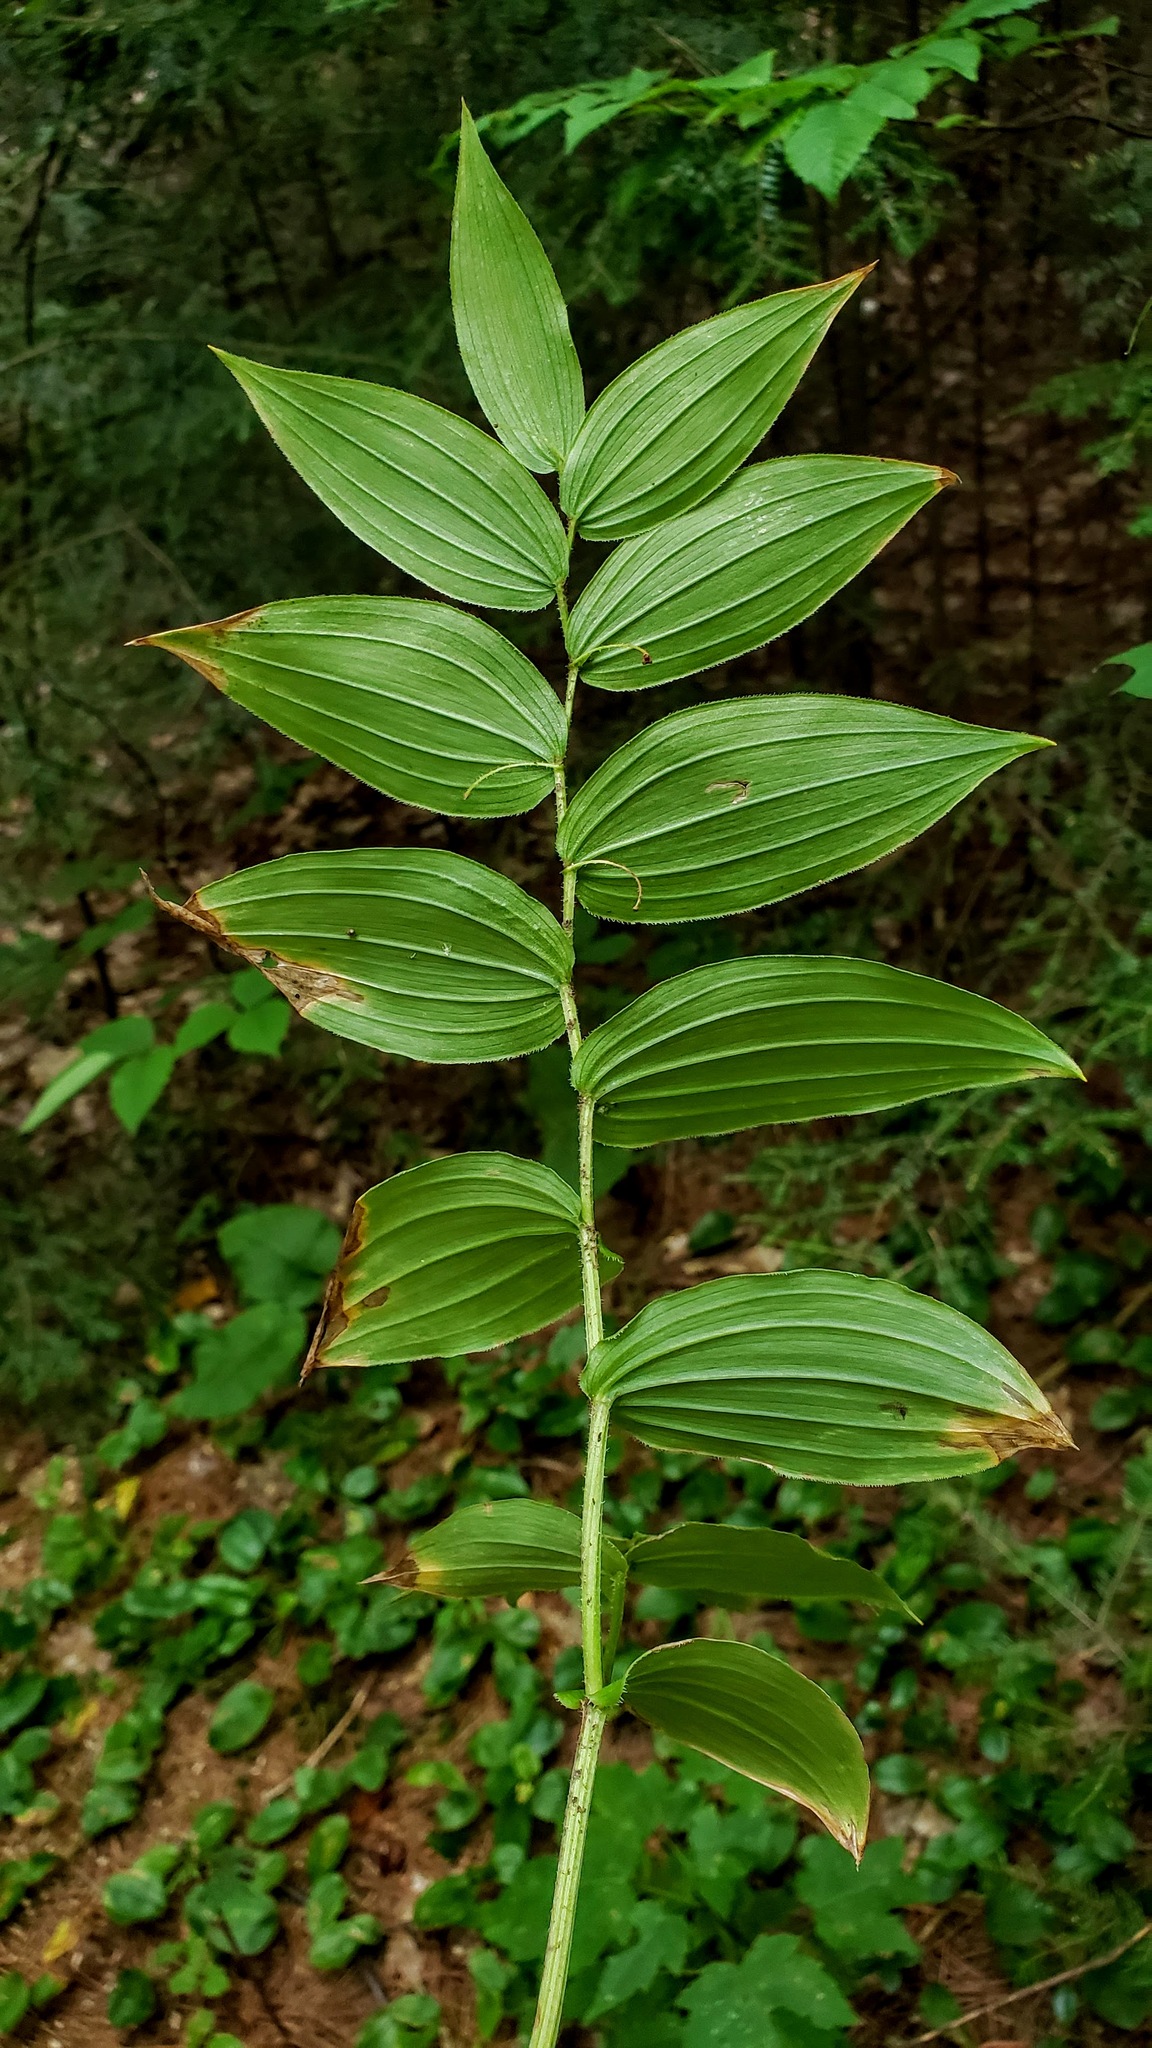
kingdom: Plantae
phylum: Tracheophyta
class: Liliopsida
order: Liliales
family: Liliaceae
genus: Streptopus
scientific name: Streptopus lanceolatus
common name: Rose mandarin
